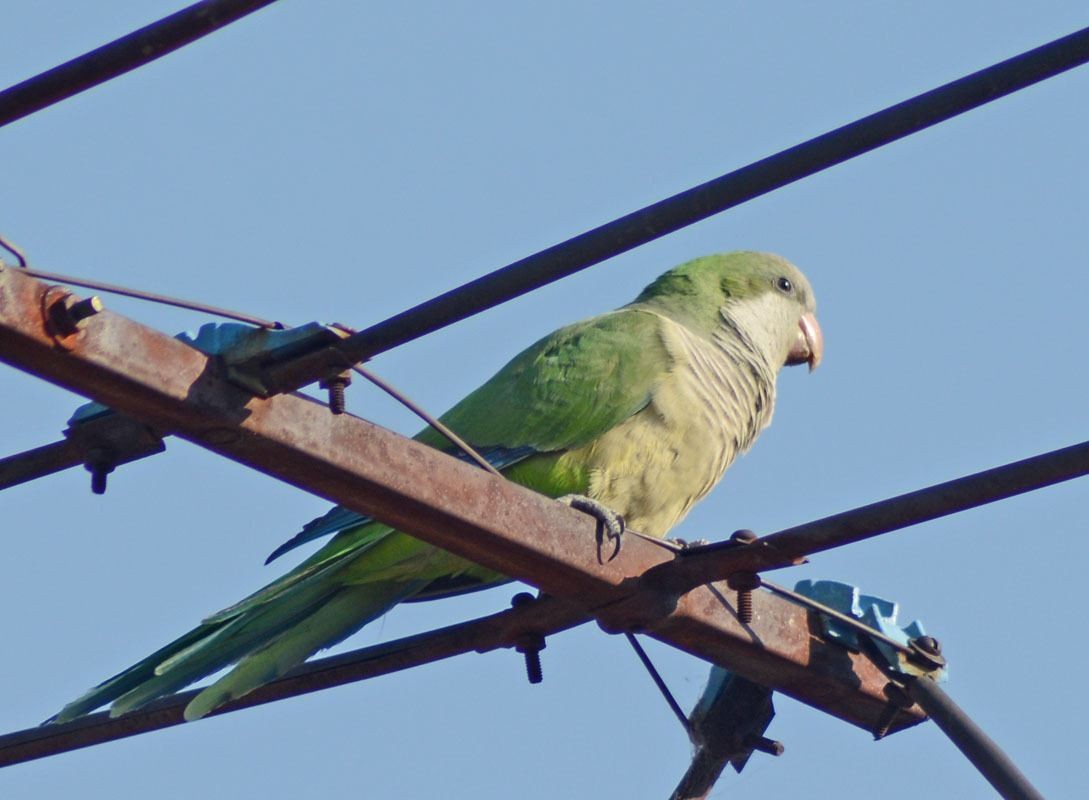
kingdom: Animalia
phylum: Chordata
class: Aves
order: Psittaciformes
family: Psittacidae
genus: Myiopsitta
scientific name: Myiopsitta monachus
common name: Monk parakeet
